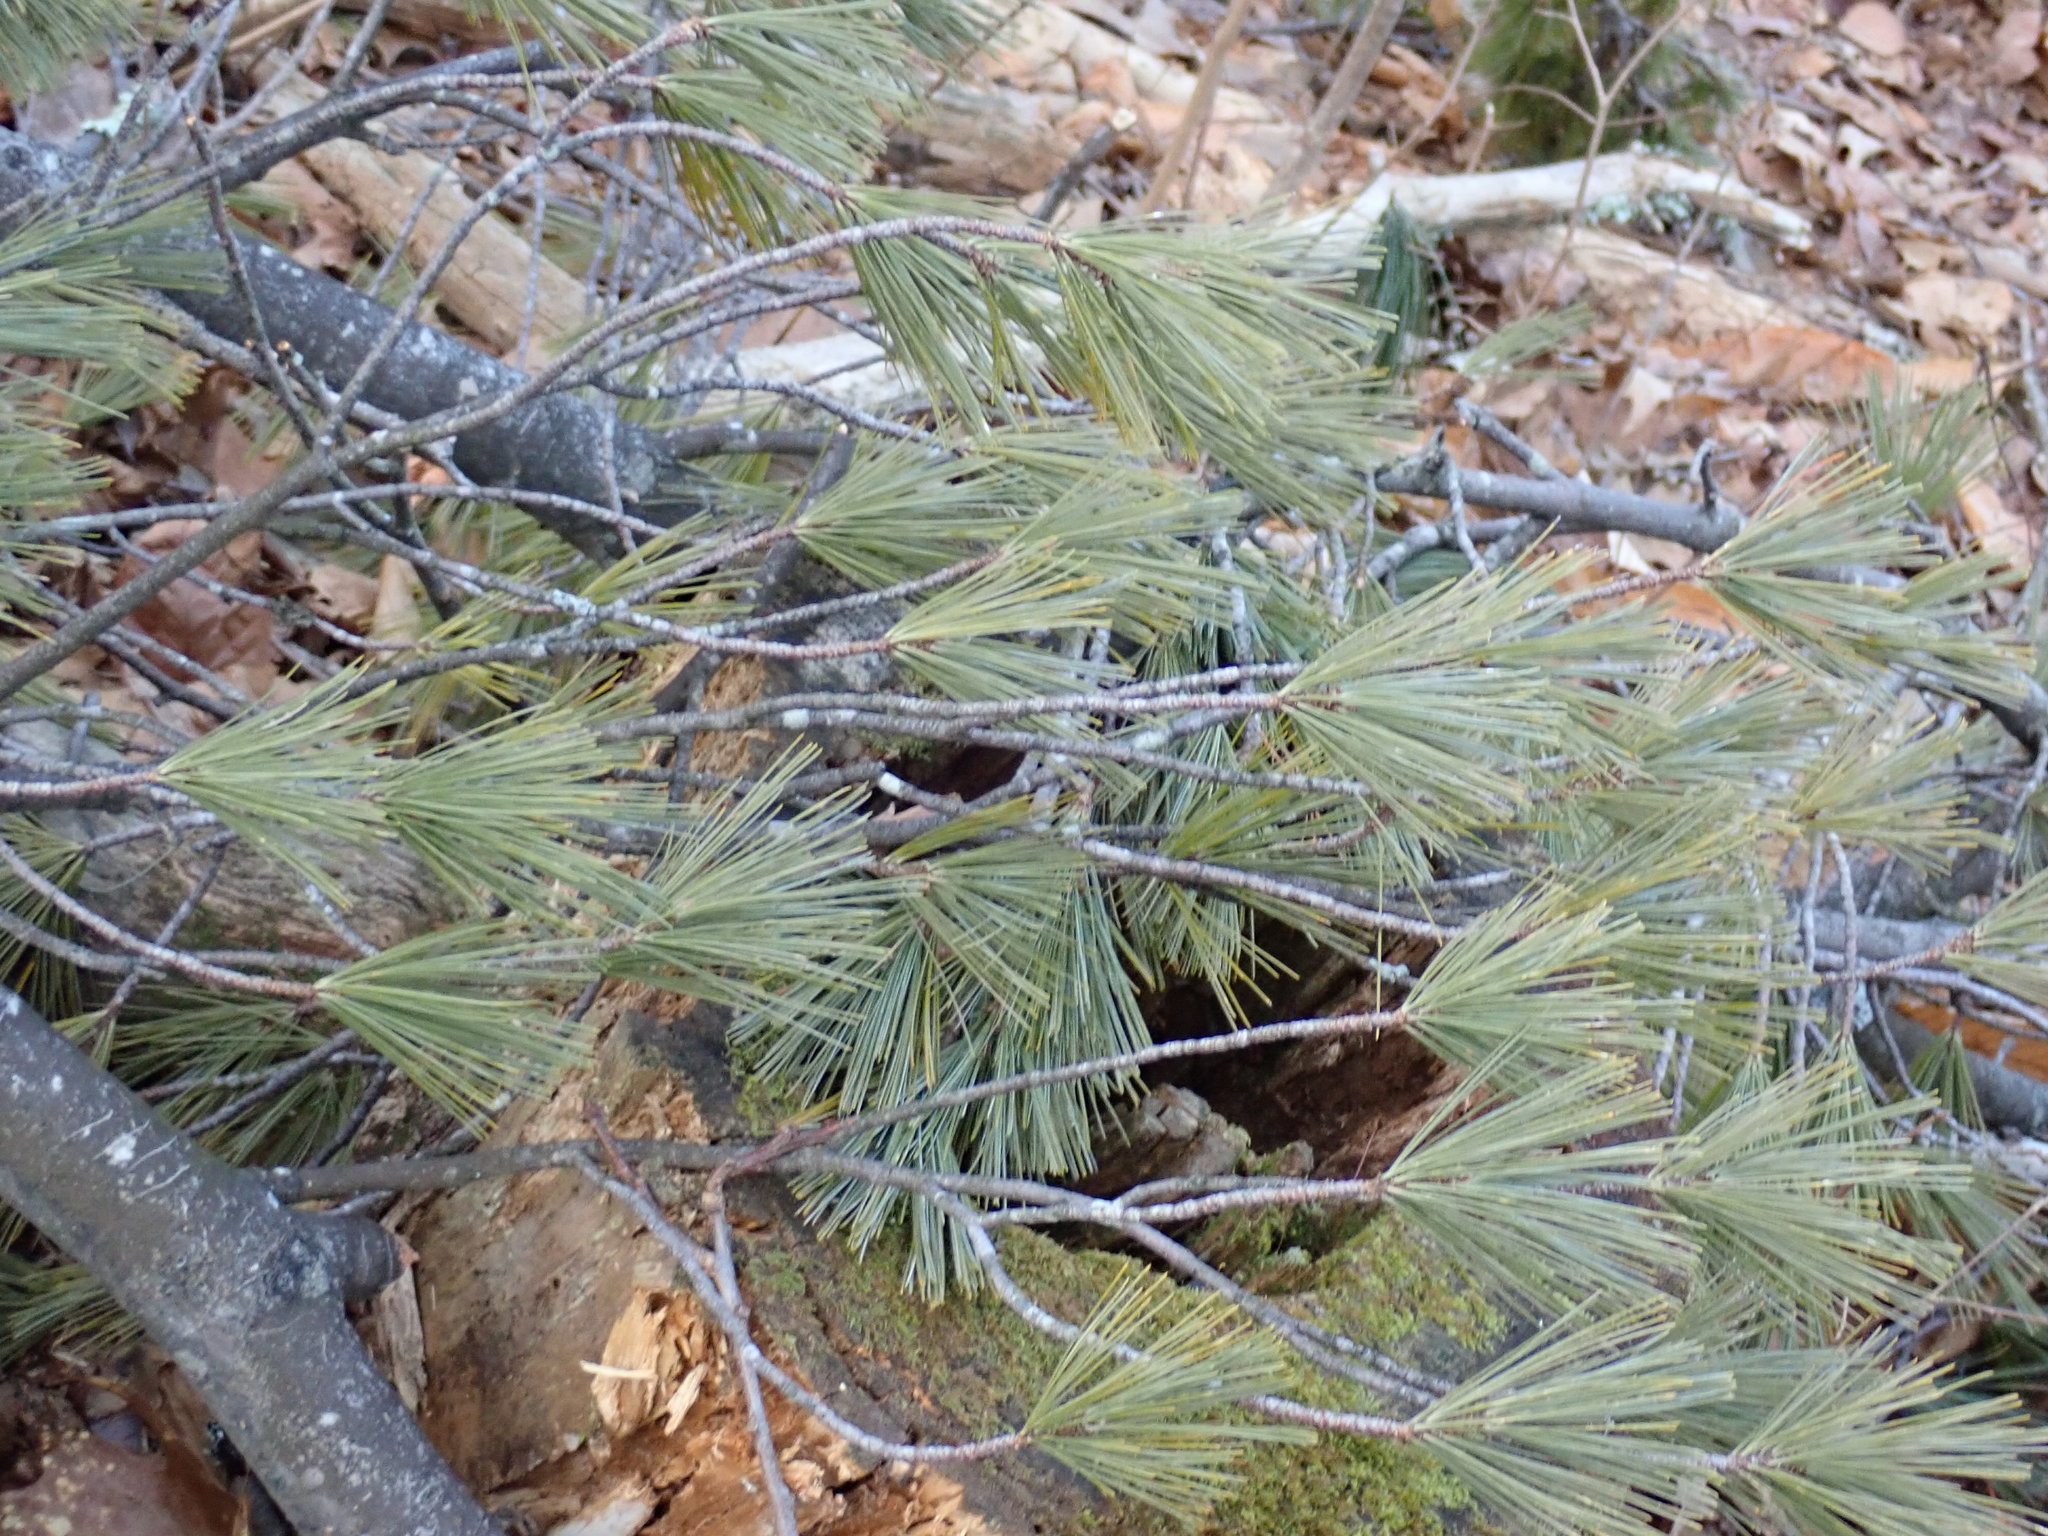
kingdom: Plantae
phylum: Tracheophyta
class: Pinopsida
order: Pinales
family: Pinaceae
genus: Pinus
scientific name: Pinus strobus
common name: Weymouth pine
